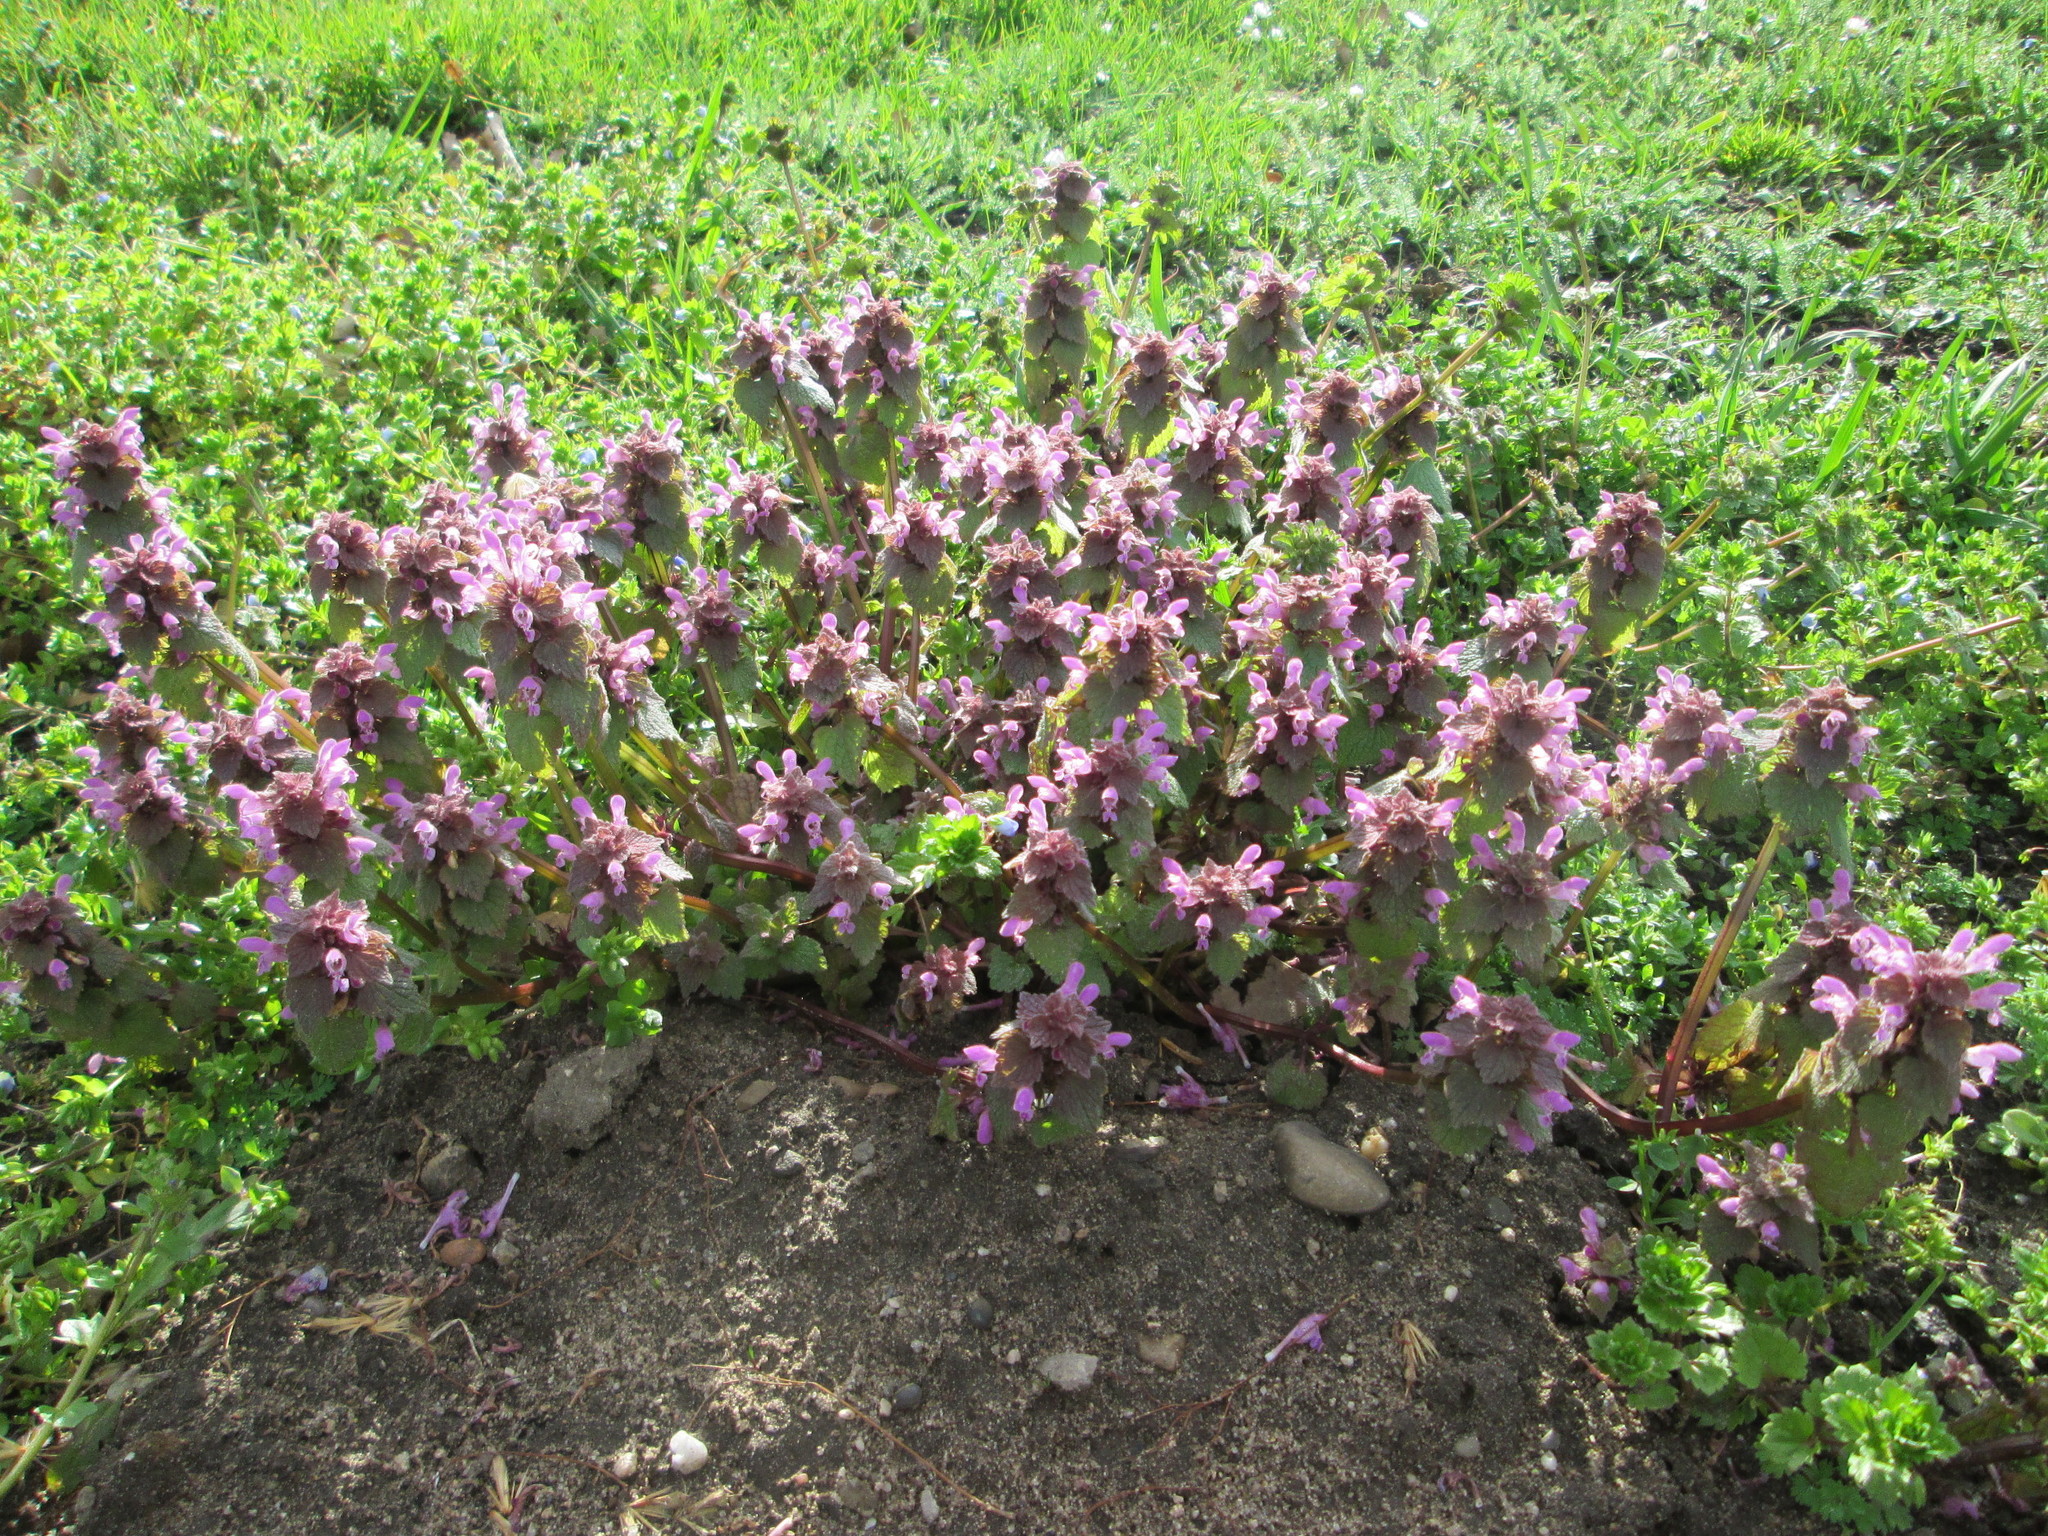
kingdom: Plantae
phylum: Tracheophyta
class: Magnoliopsida
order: Lamiales
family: Lamiaceae
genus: Lamium
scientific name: Lamium purpureum
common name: Red dead-nettle
